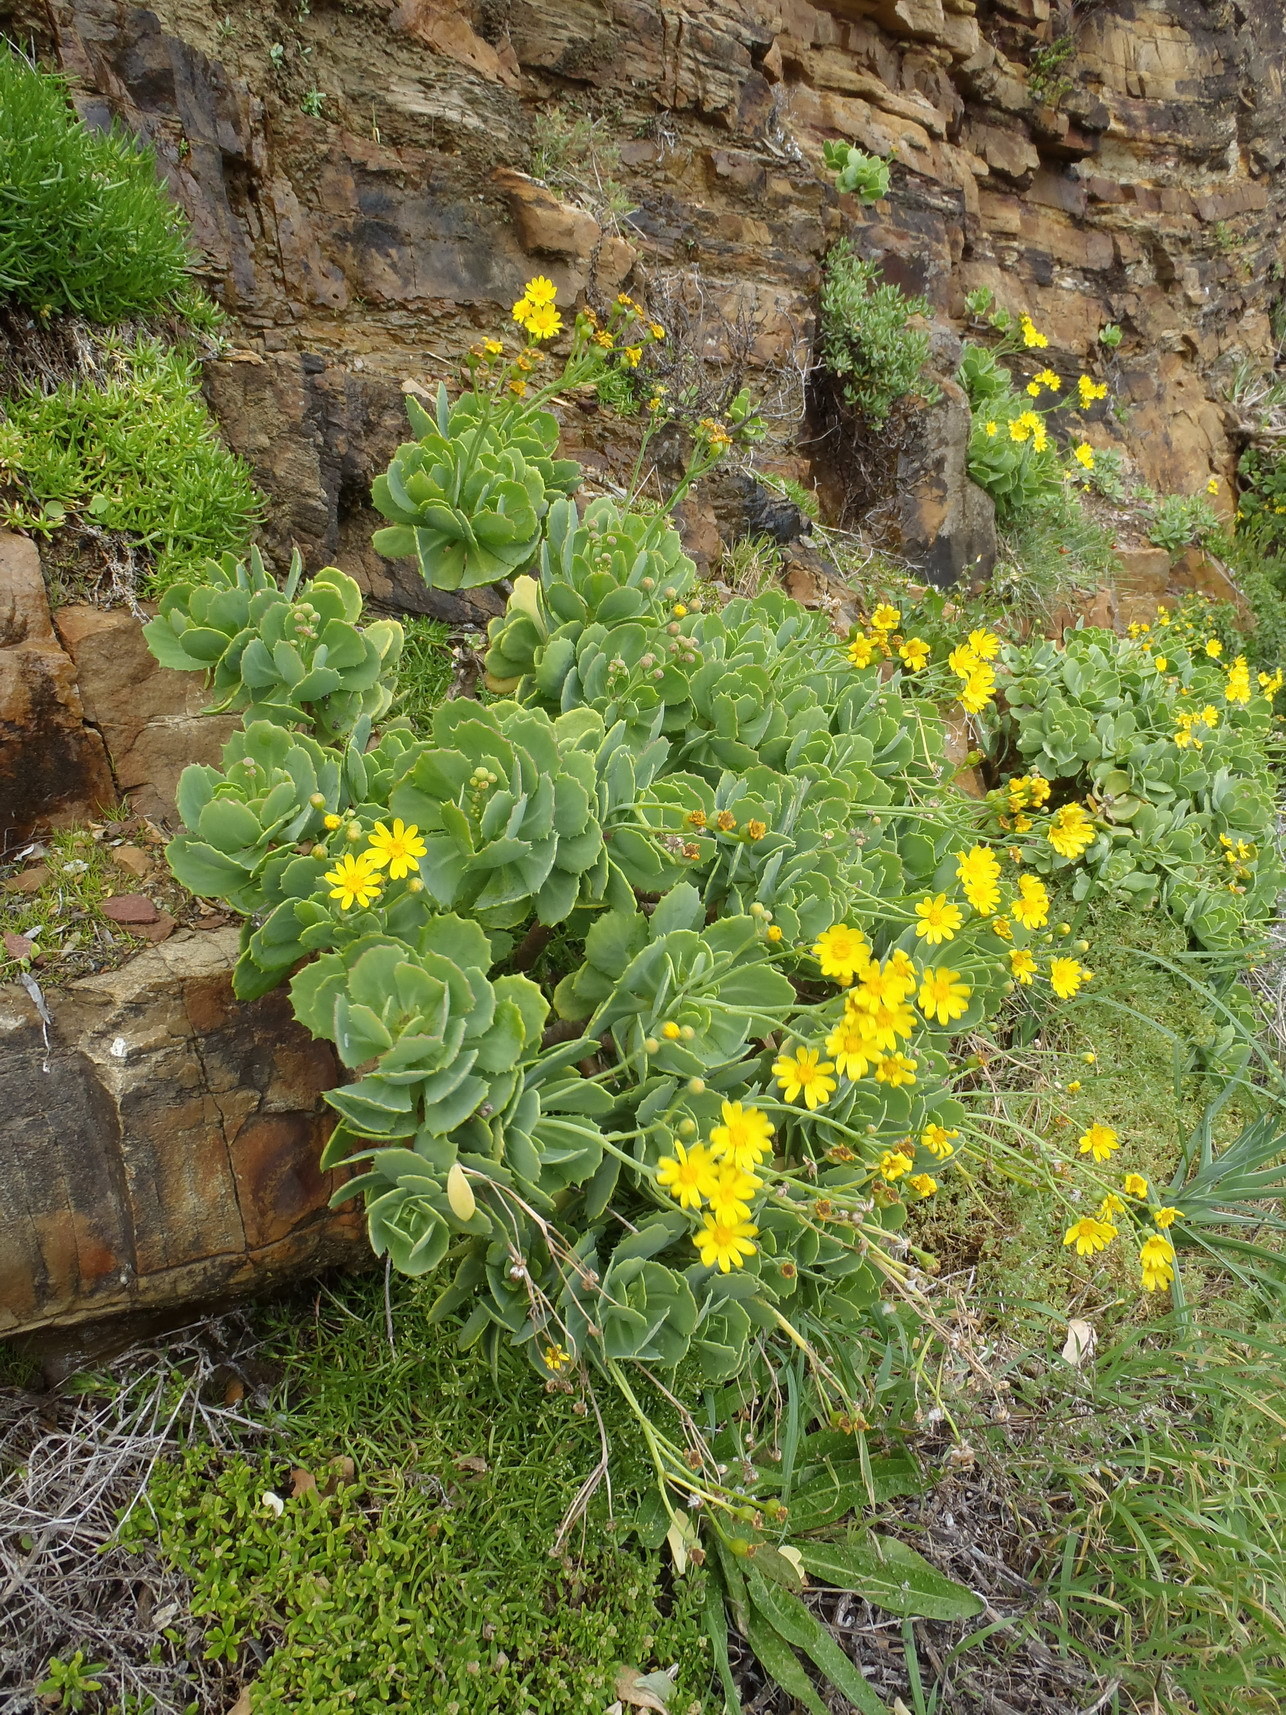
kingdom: Plantae
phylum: Tracheophyta
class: Magnoliopsida
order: Asterales
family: Asteraceae
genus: Othonna
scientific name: Othonna dentata
